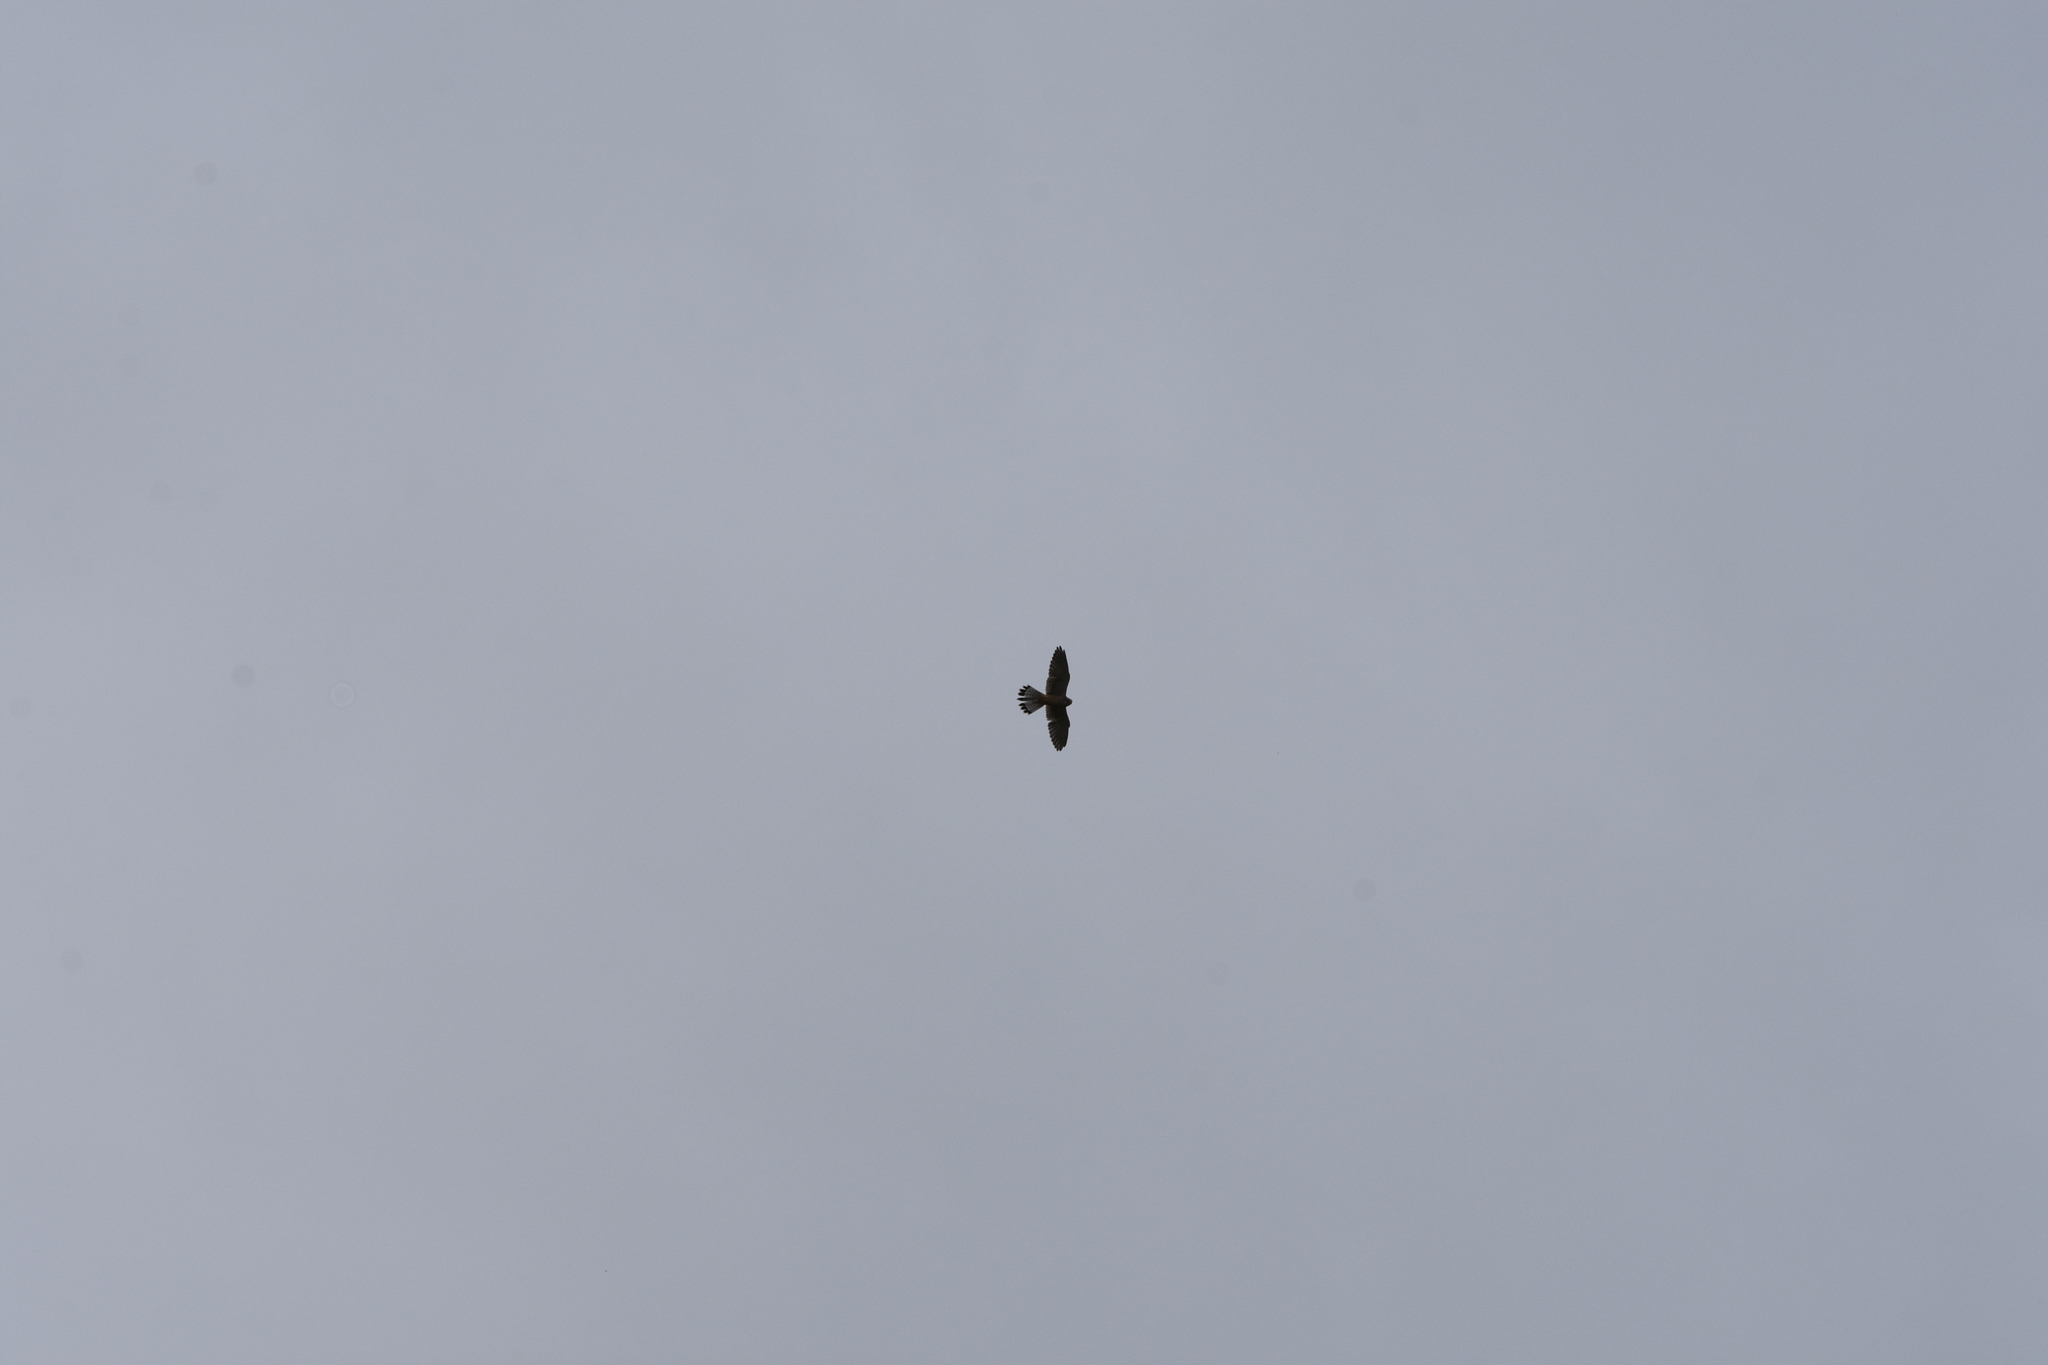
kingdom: Animalia
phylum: Chordata
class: Aves
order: Falconiformes
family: Falconidae
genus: Falco
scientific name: Falco tinnunculus
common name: Common kestrel
